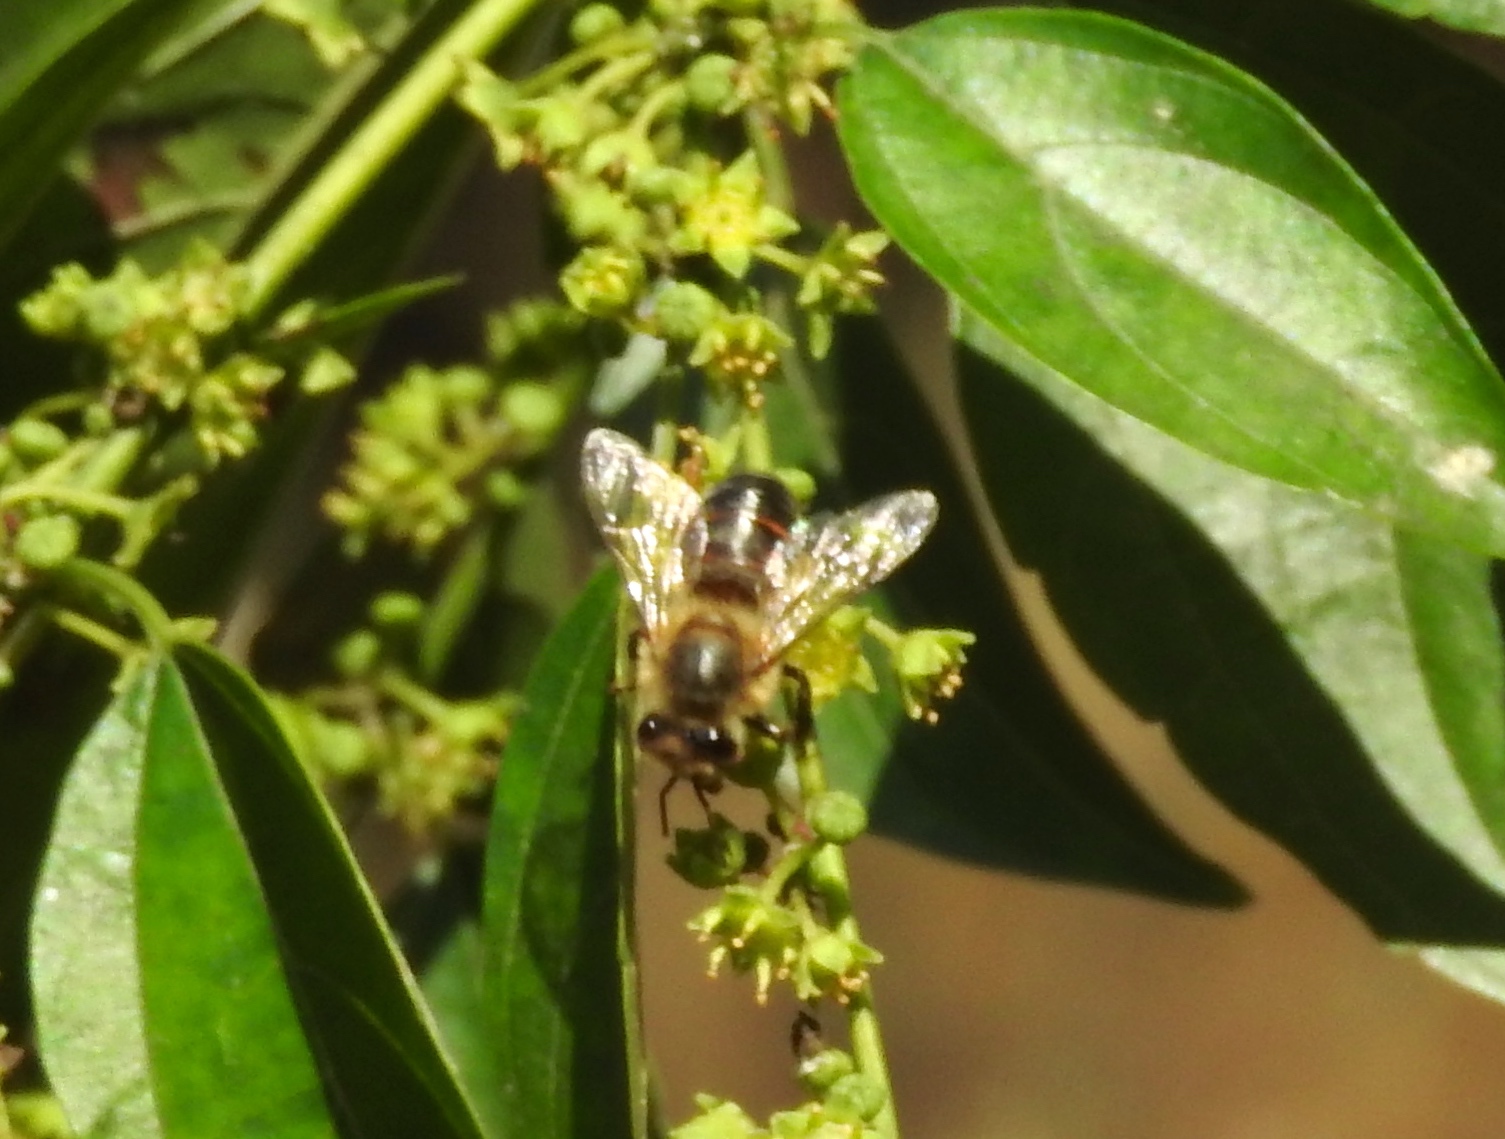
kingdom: Animalia
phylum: Arthropoda
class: Insecta
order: Hymenoptera
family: Apidae
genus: Apis
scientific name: Apis mellifera
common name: Honey bee
